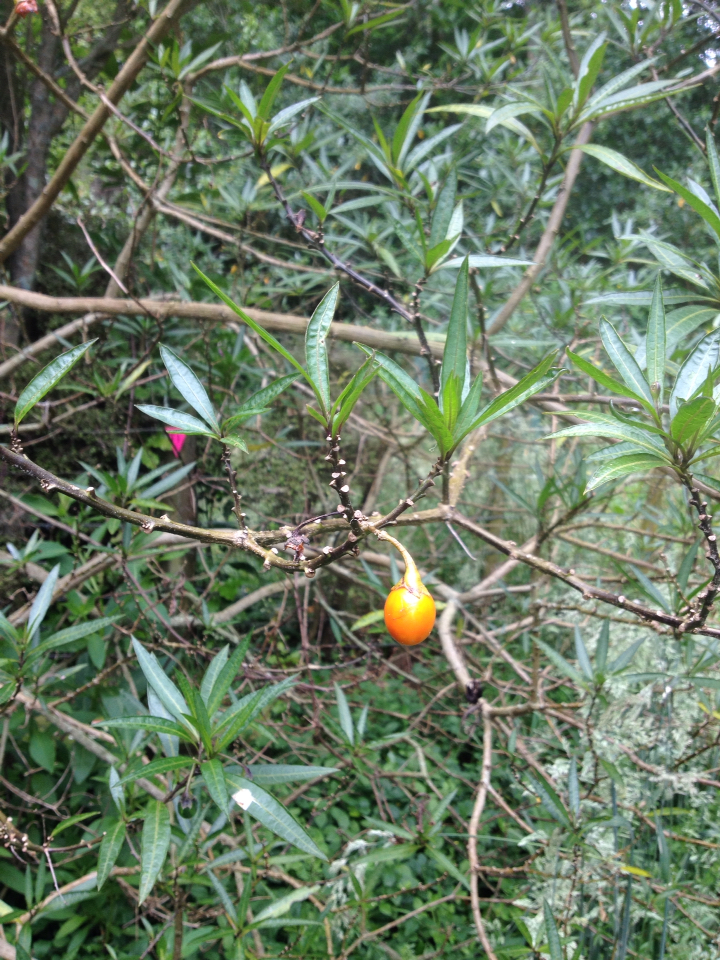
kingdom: Plantae
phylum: Tracheophyta
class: Magnoliopsida
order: Solanales
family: Solanaceae
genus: Solanum
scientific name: Solanum
